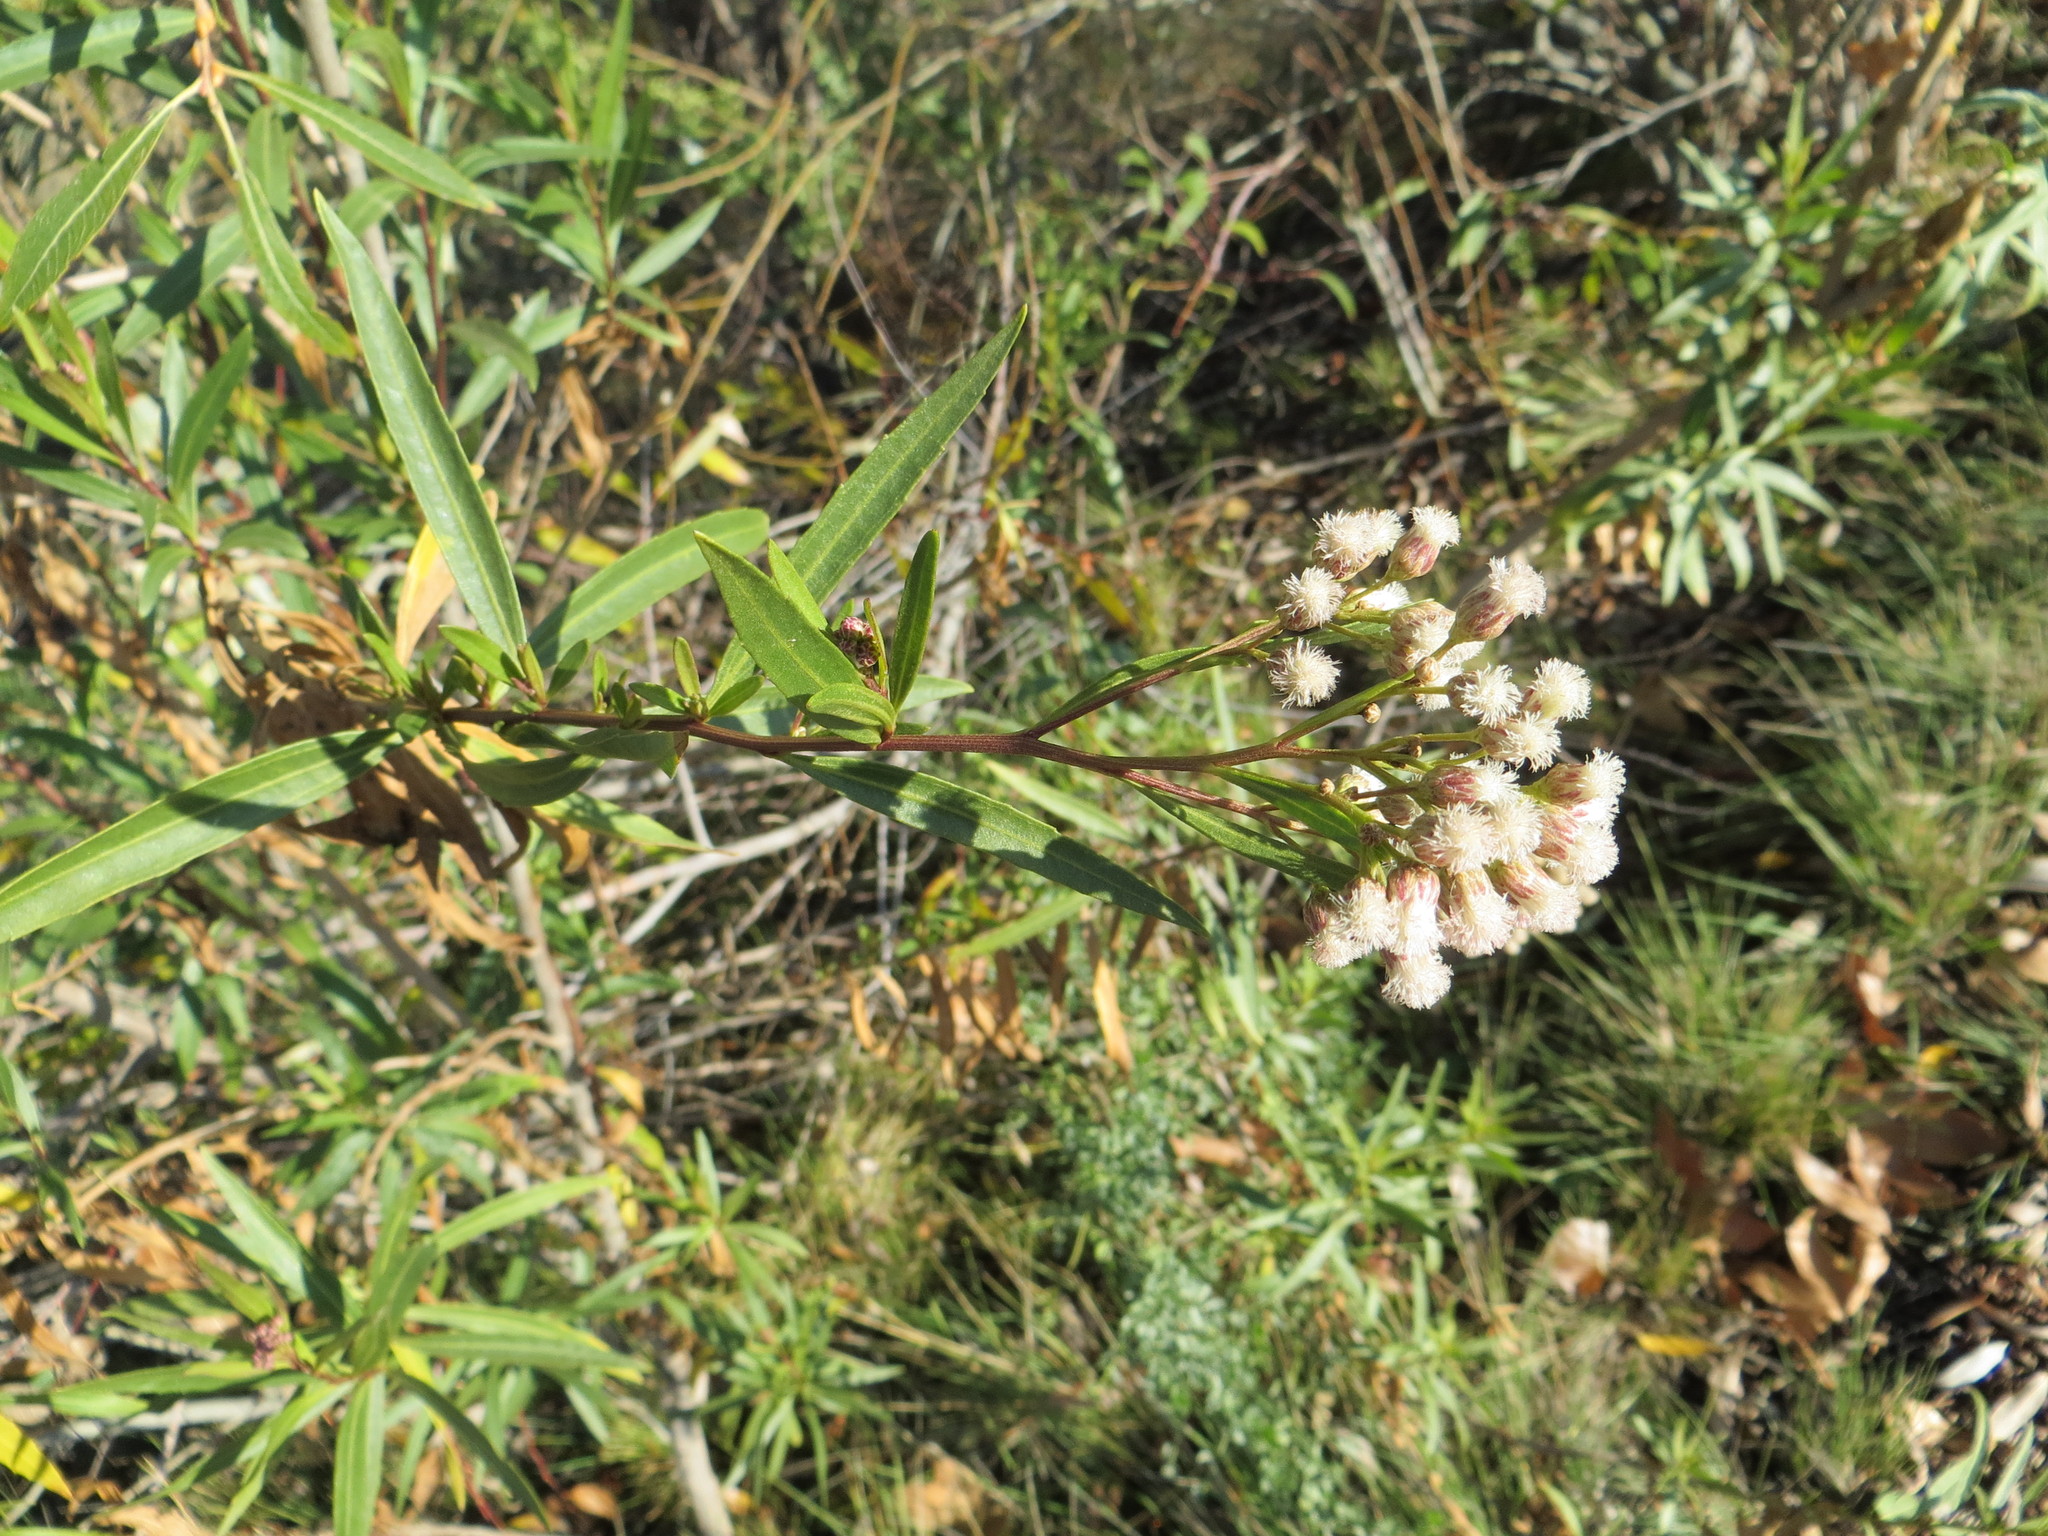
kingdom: Plantae
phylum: Tracheophyta
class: Magnoliopsida
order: Asterales
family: Asteraceae
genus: Baccharis
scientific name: Baccharis salicifolia
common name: Sticky baccharis
